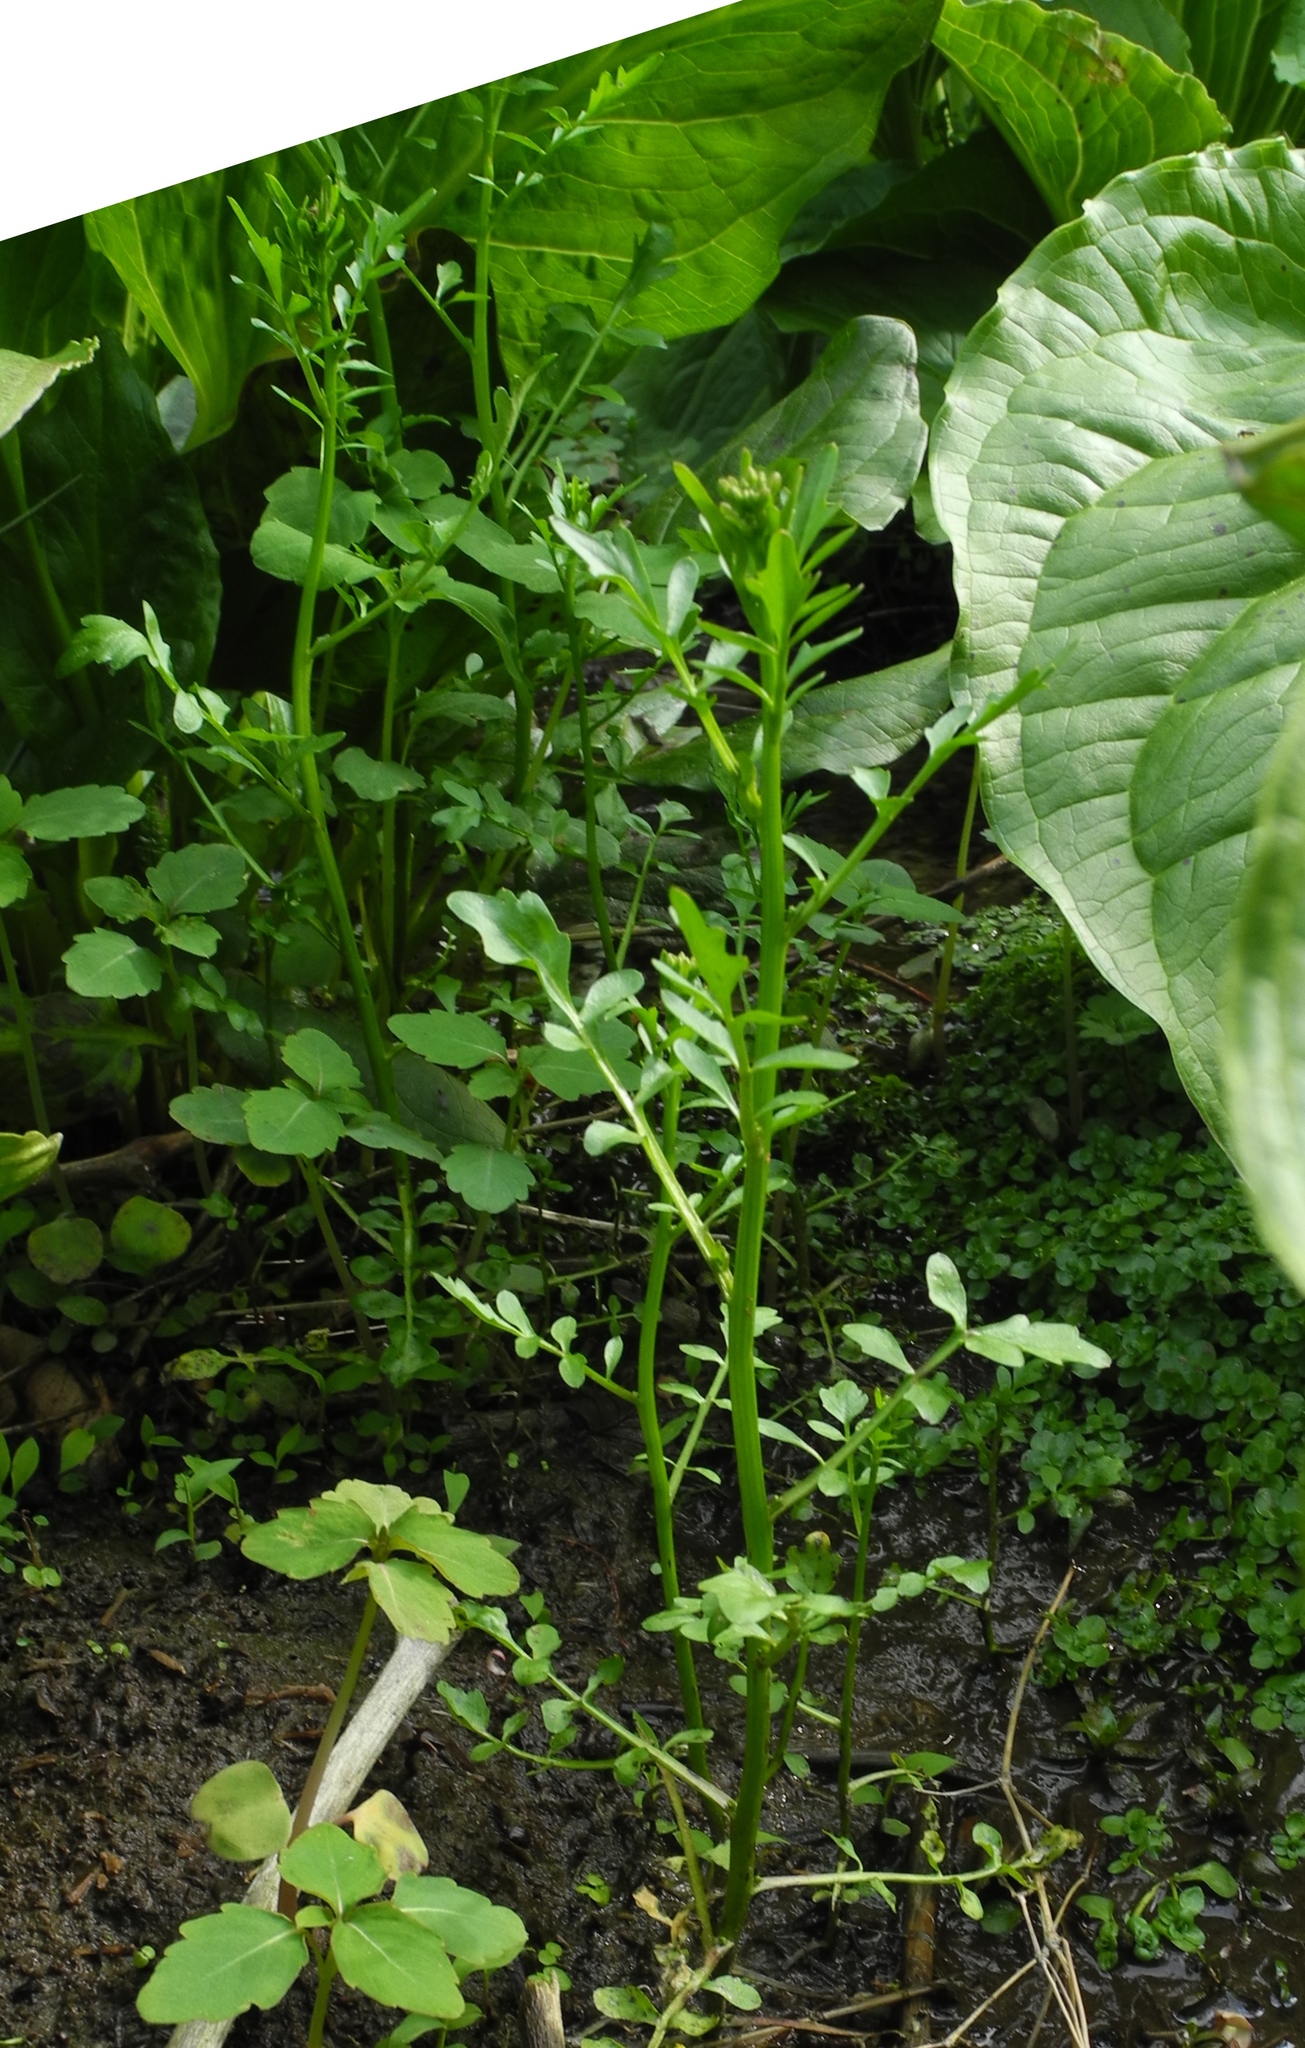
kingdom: Plantae
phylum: Tracheophyta
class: Magnoliopsida
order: Brassicales
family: Brassicaceae
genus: Cardamine
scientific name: Cardamine pensylvanica
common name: Pennsylvania bittercress
